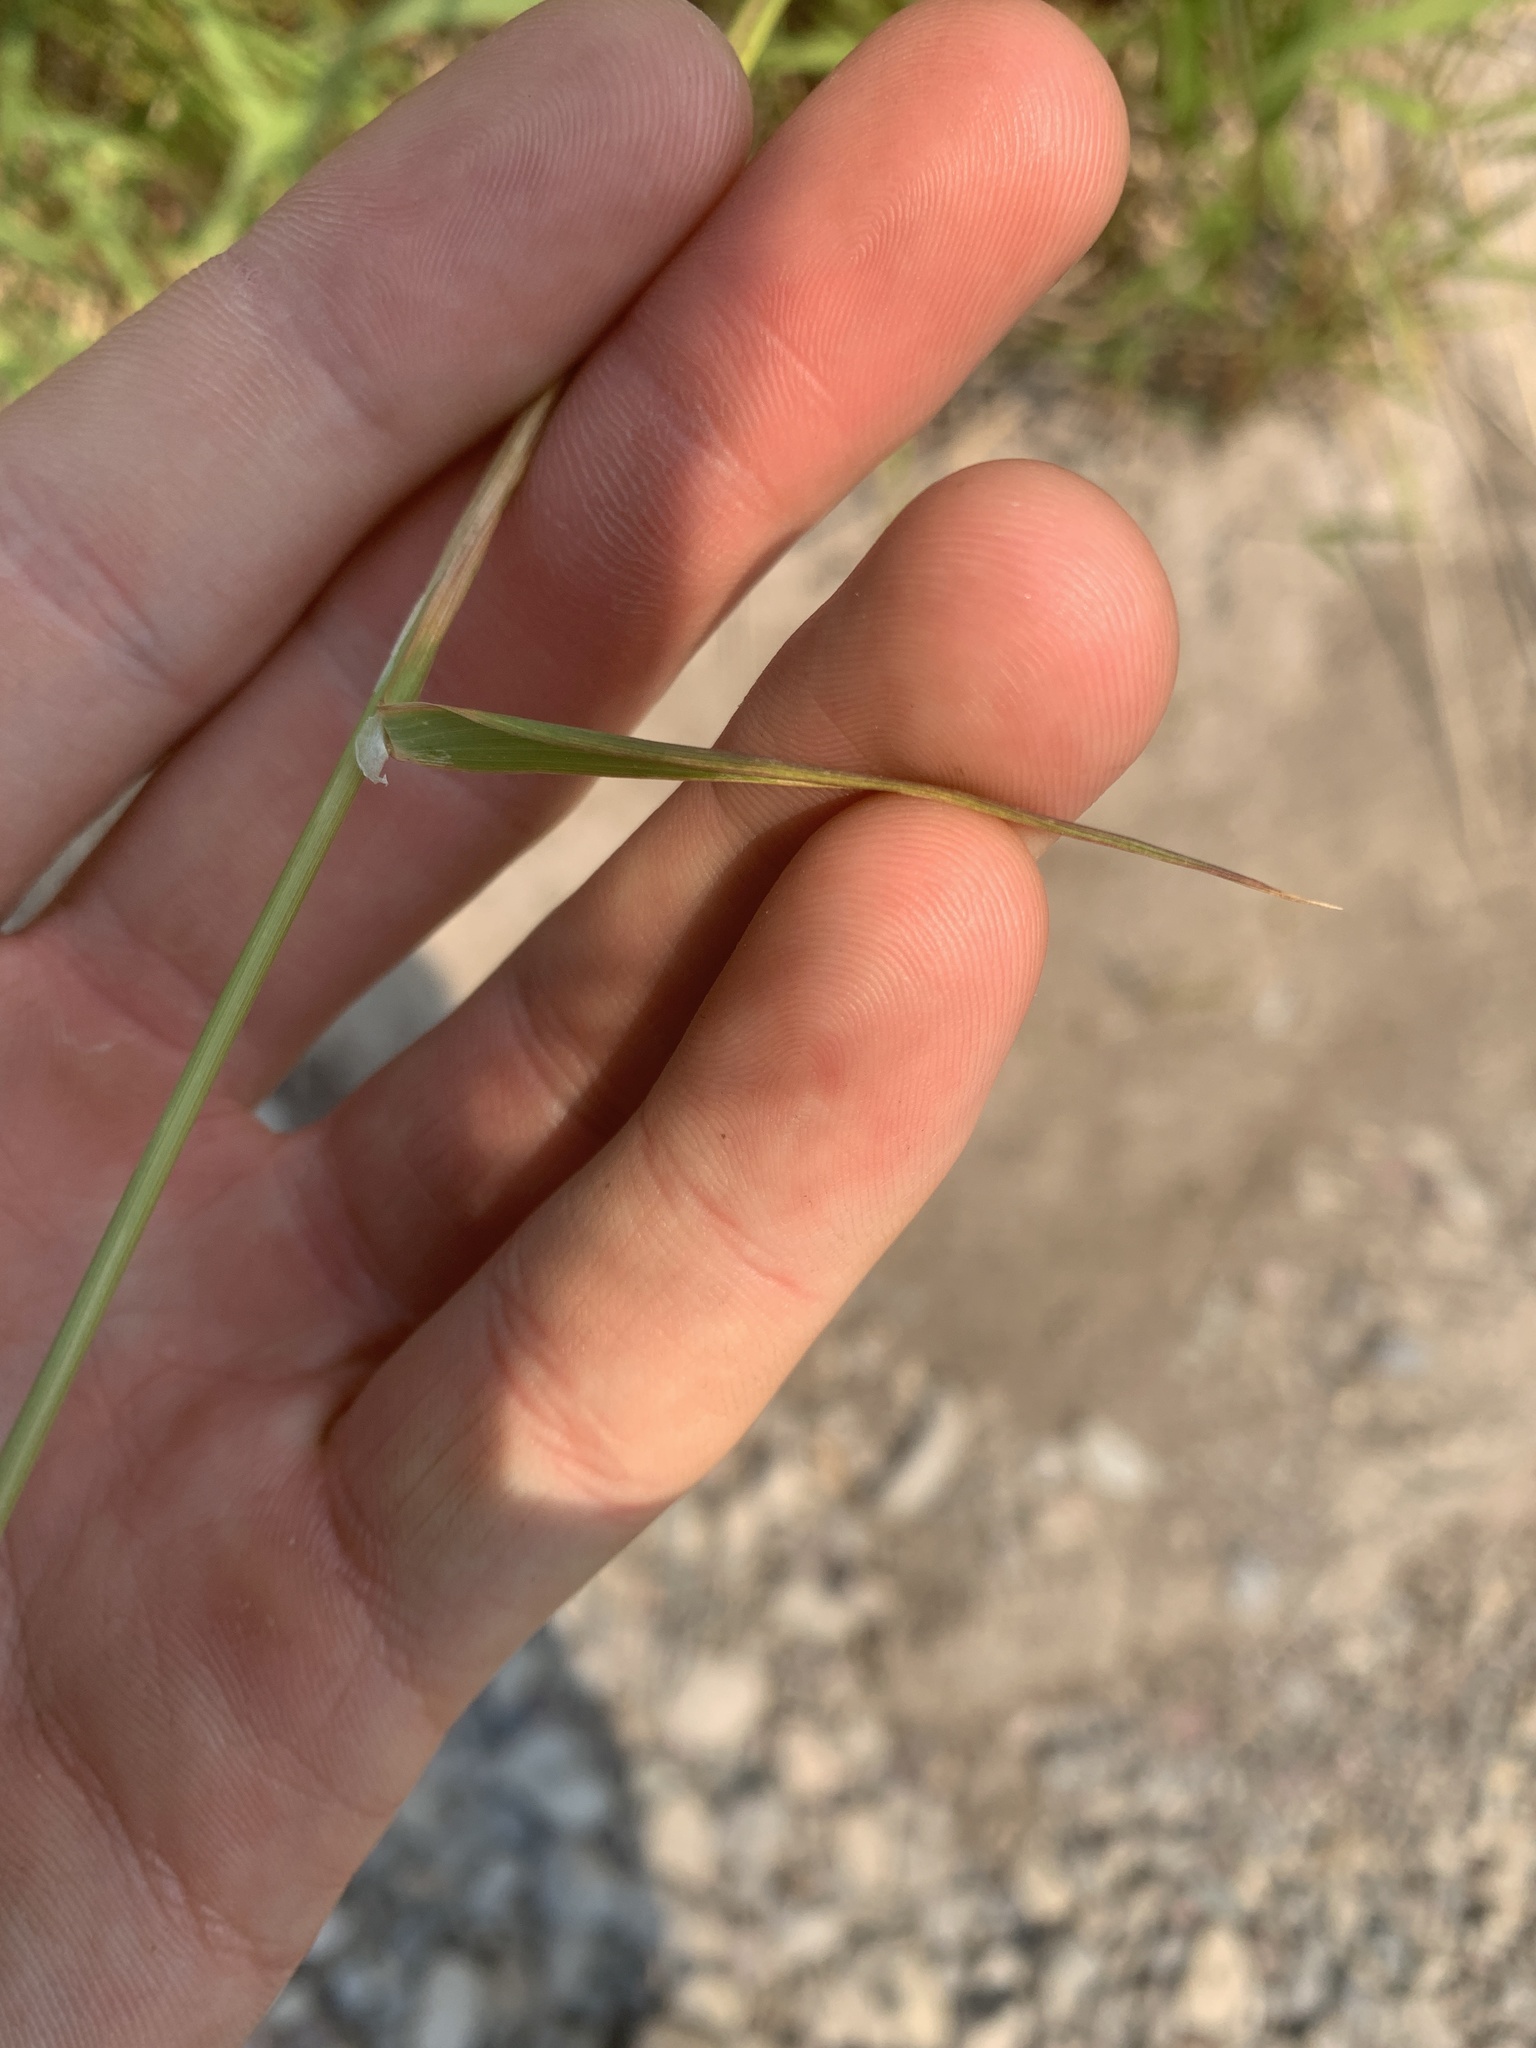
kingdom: Plantae
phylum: Tracheophyta
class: Liliopsida
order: Poales
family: Poaceae
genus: Phalaris
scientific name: Phalaris arundinacea
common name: Reed canary-grass
